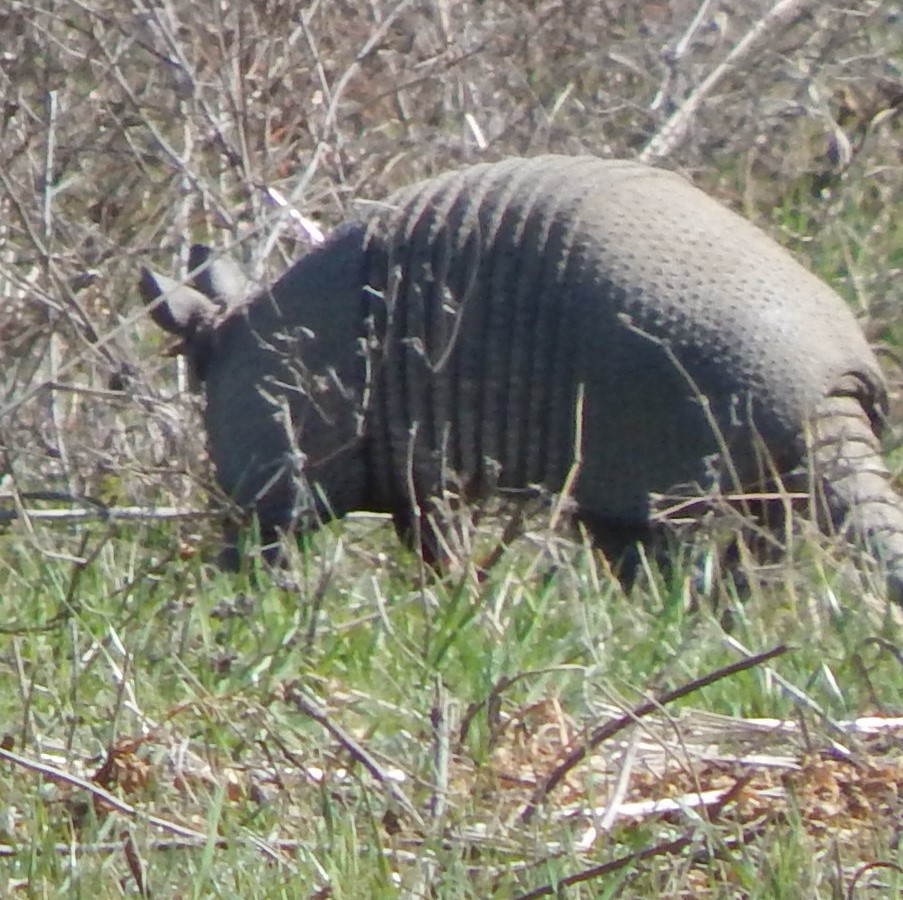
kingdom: Animalia
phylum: Chordata
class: Mammalia
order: Cingulata
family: Dasypodidae
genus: Dasypus
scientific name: Dasypus novemcinctus
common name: Nine-banded armadillo
